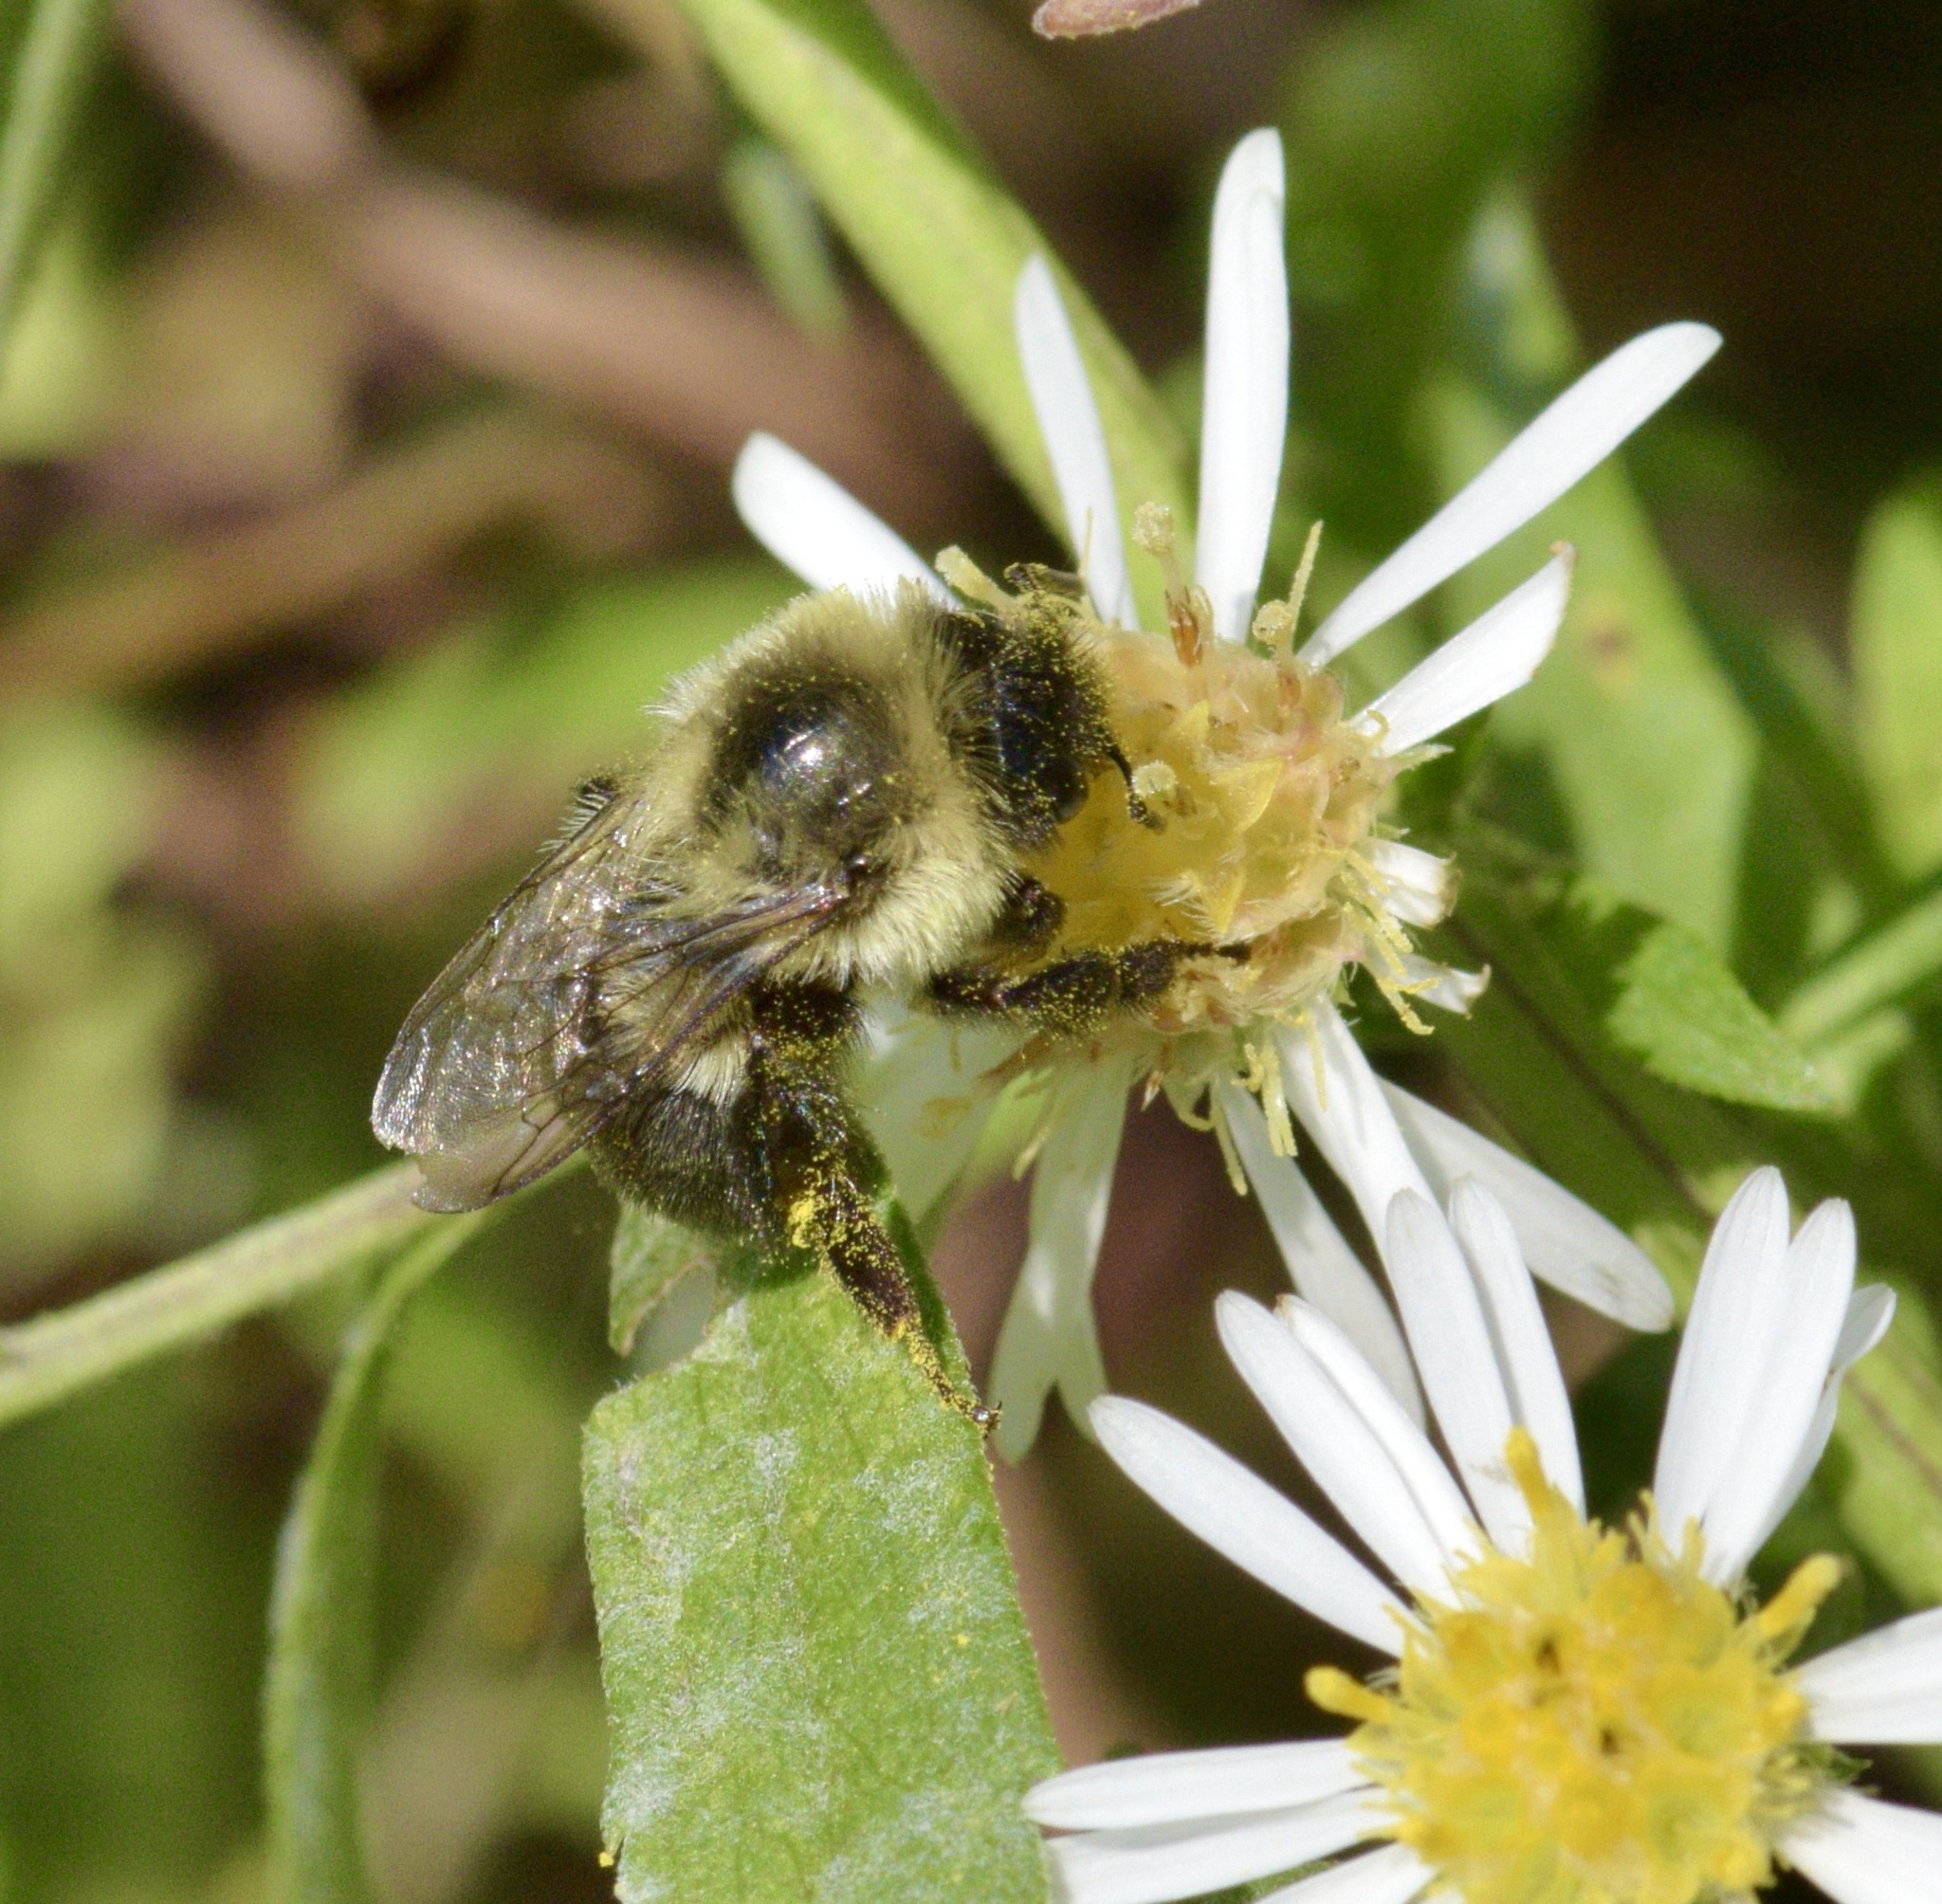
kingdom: Animalia
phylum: Arthropoda
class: Insecta
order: Hymenoptera
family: Apidae
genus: Bombus
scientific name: Bombus impatiens
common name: Common eastern bumble bee
